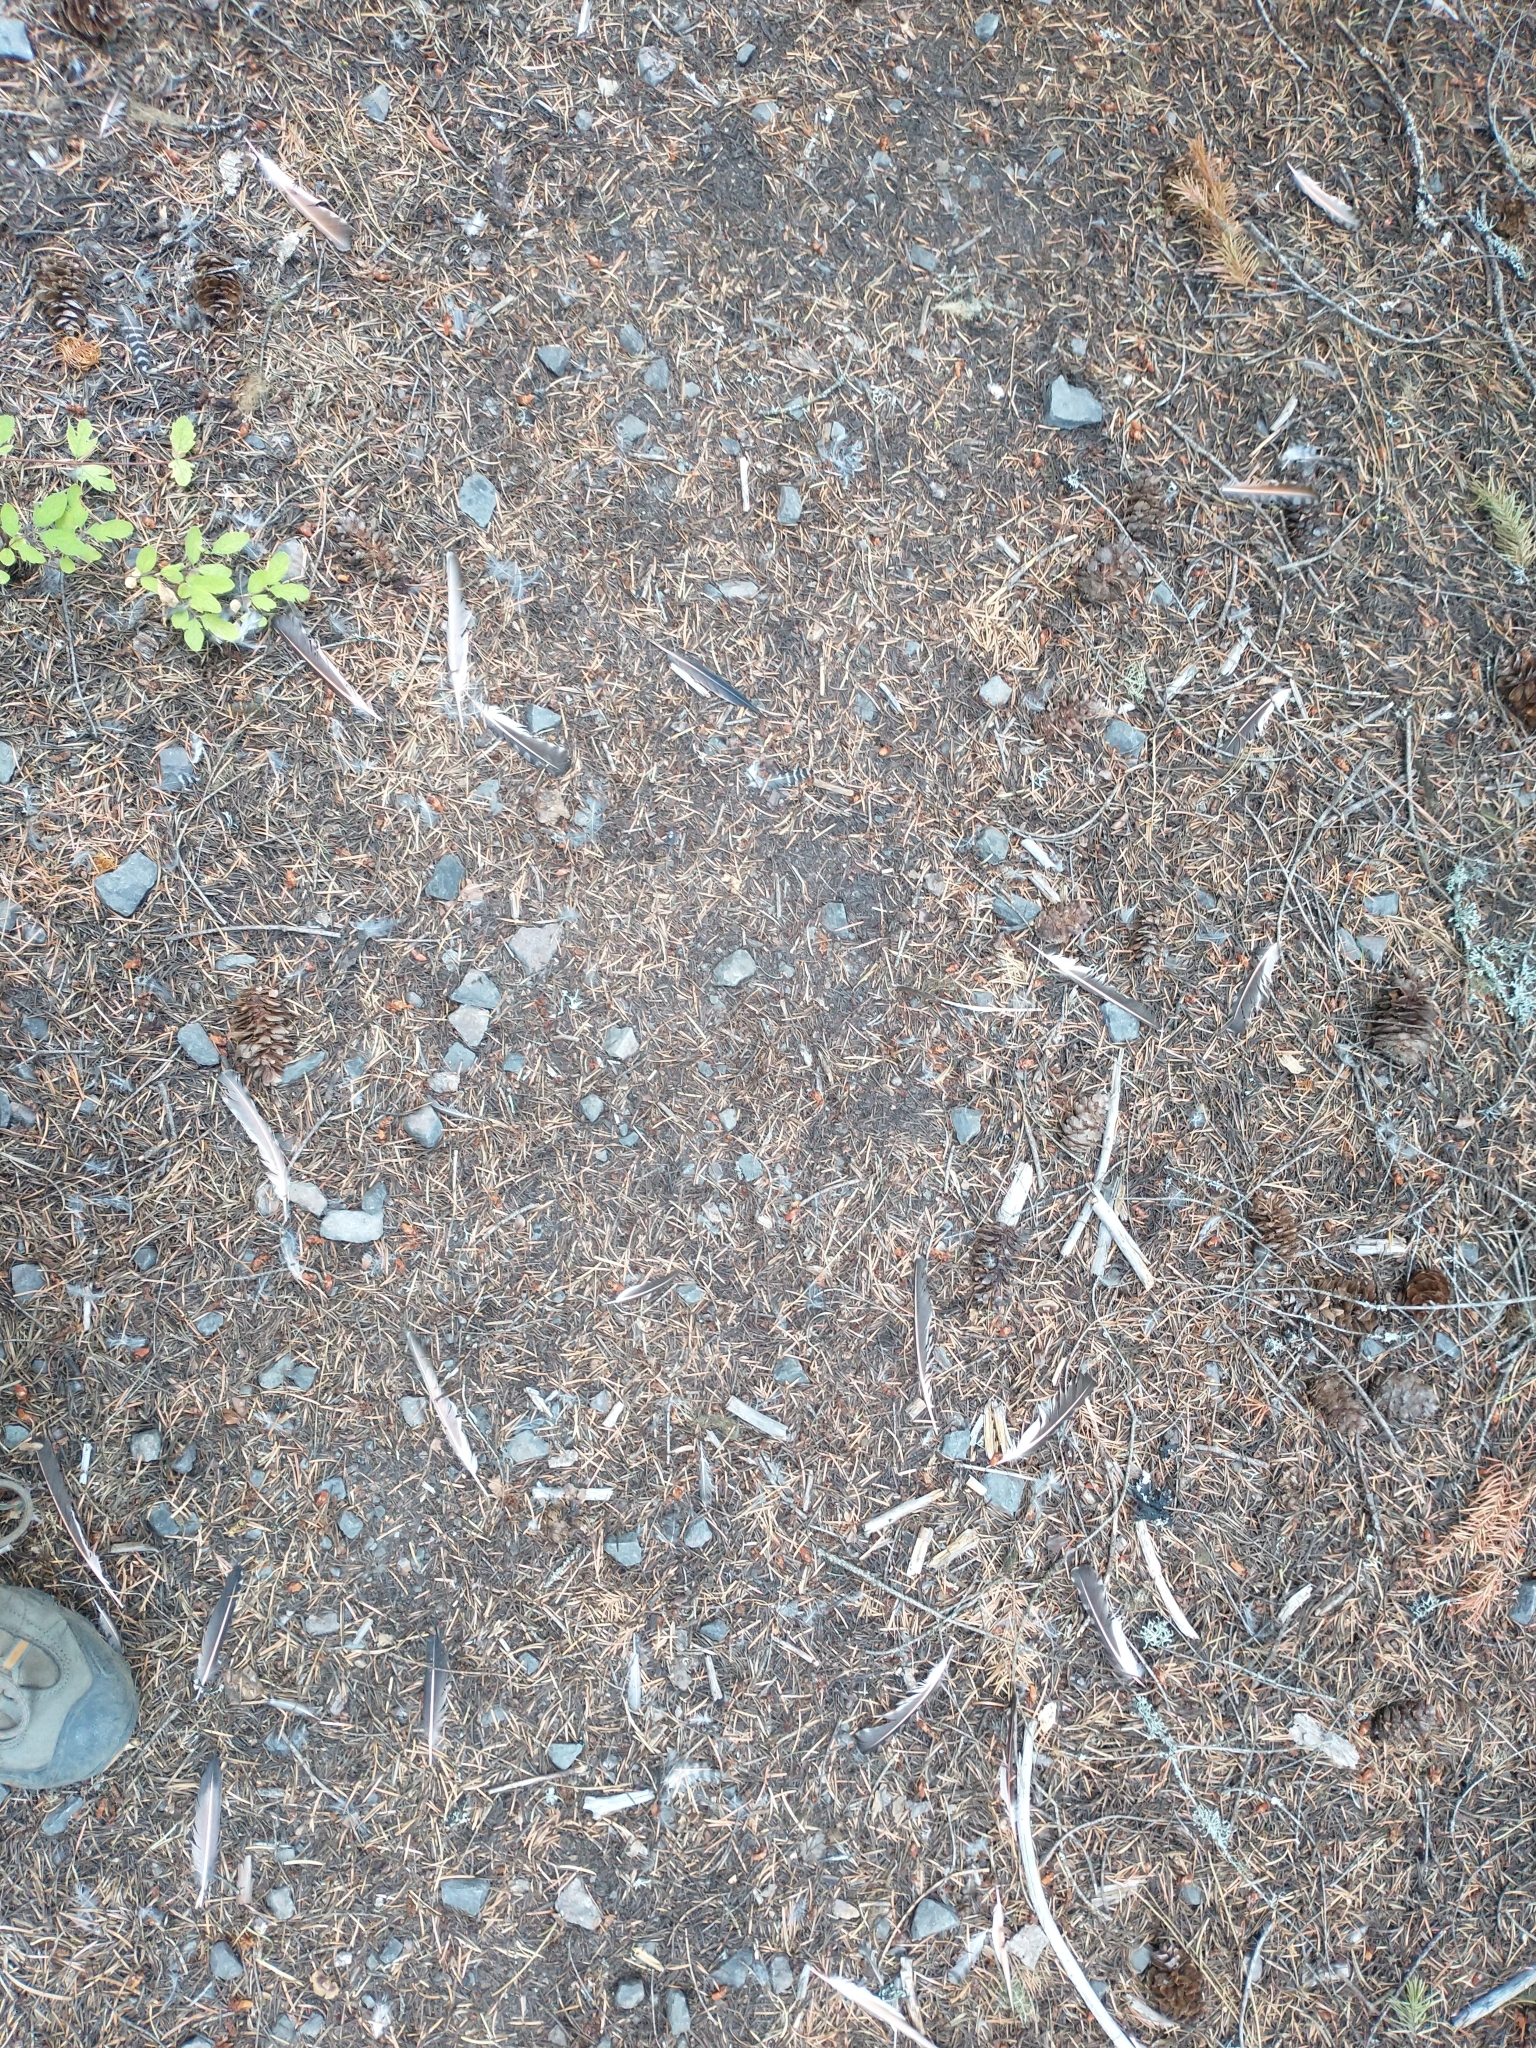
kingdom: Animalia
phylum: Chordata
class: Aves
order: Piciformes
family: Picidae
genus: Colaptes
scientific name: Colaptes auratus
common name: Northern flicker
